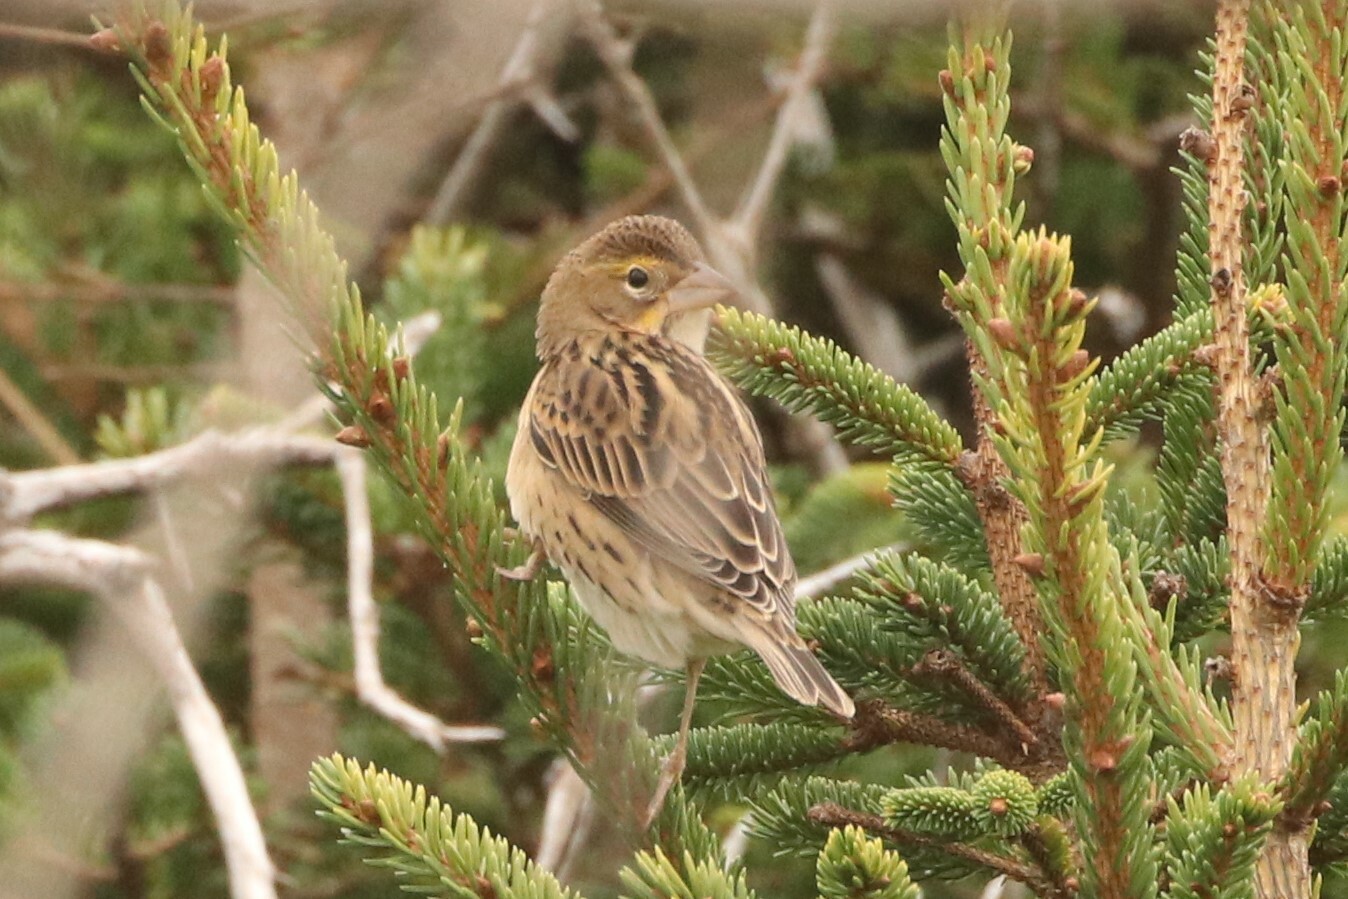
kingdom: Animalia
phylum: Chordata
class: Aves
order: Passeriformes
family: Cardinalidae
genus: Spiza
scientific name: Spiza americana
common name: Dickcissel
